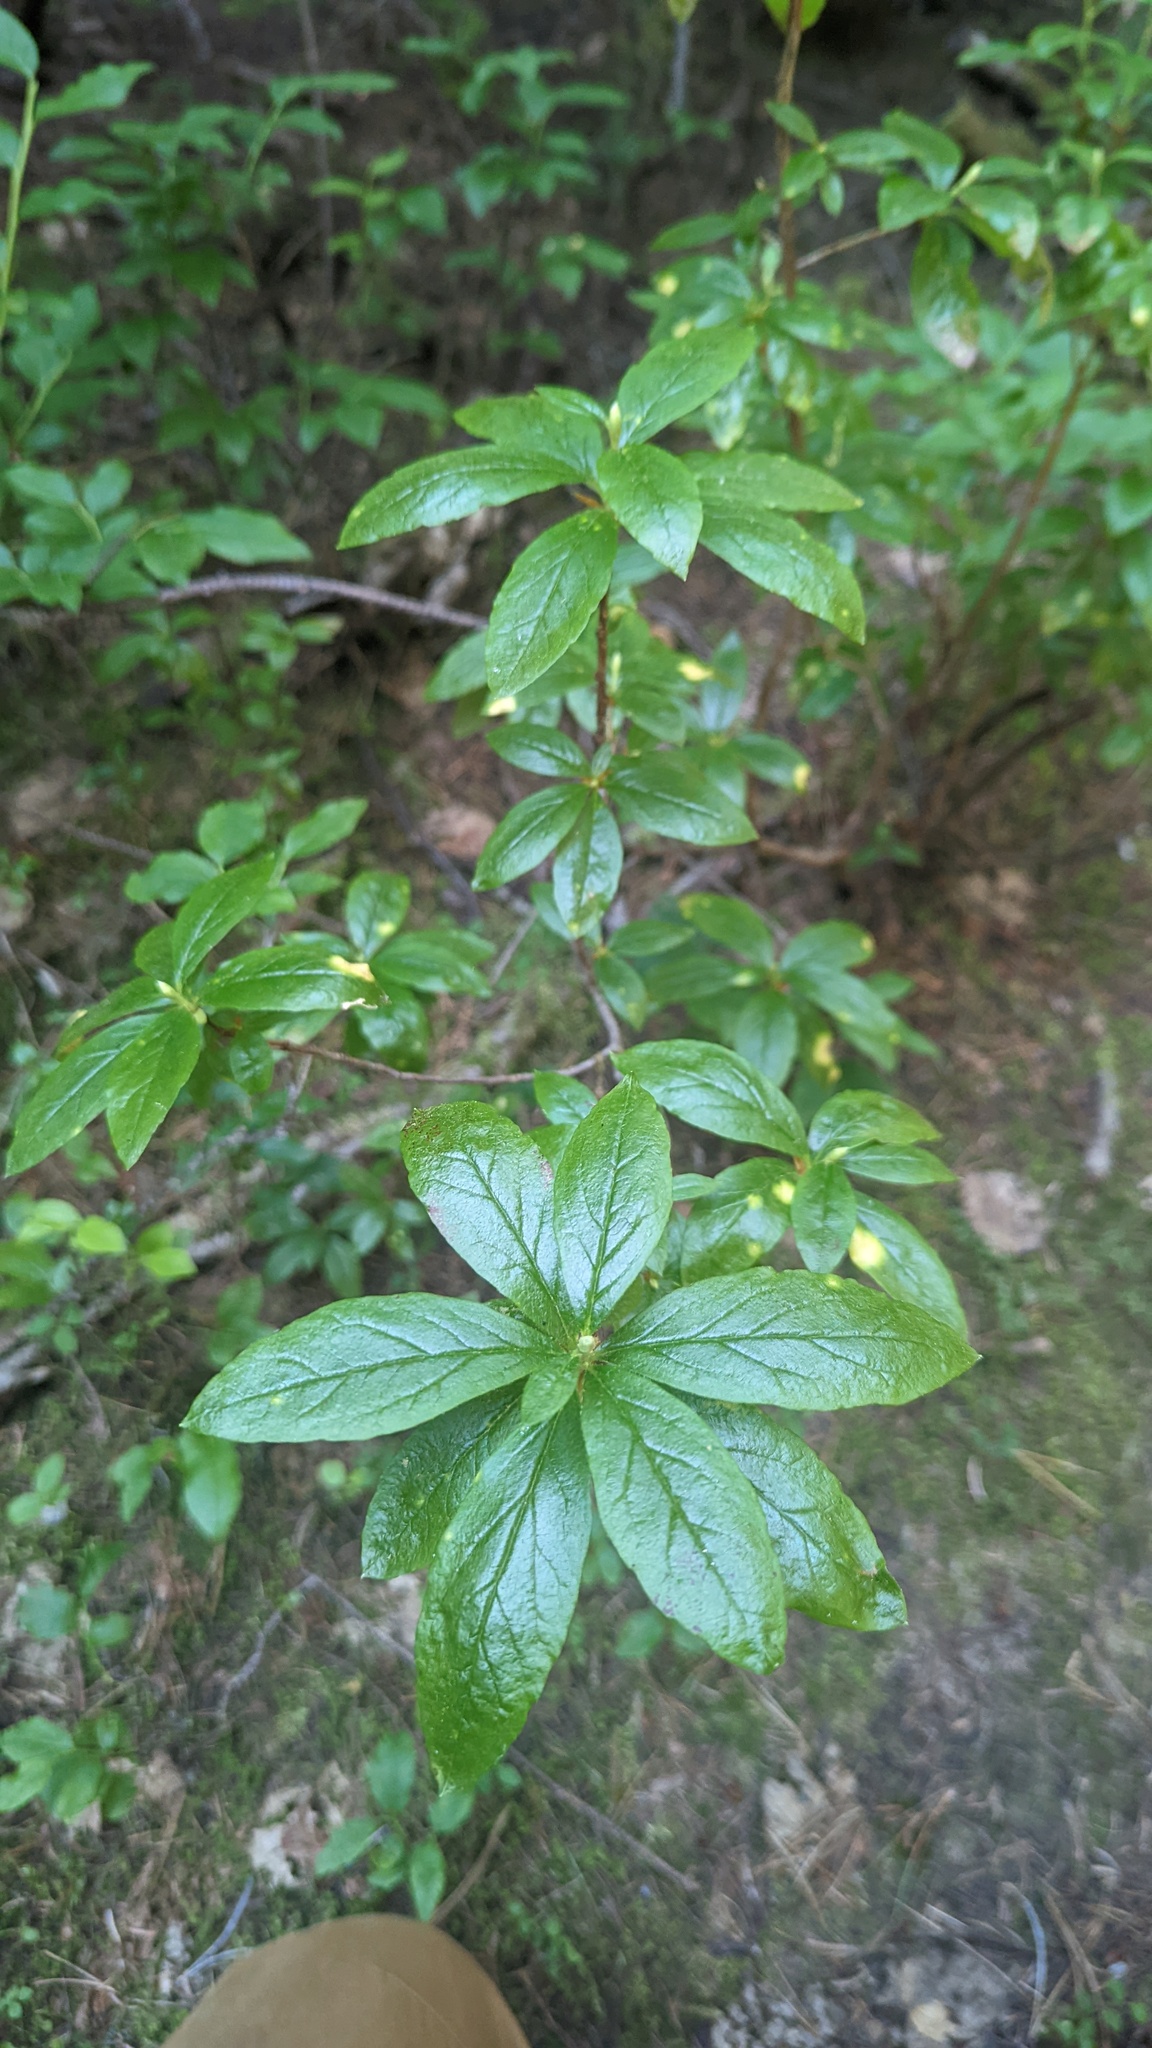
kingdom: Plantae
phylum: Tracheophyta
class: Magnoliopsida
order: Ericales
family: Ericaceae
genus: Rhododendron
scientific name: Rhododendron albiflorum
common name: White rhododendron
